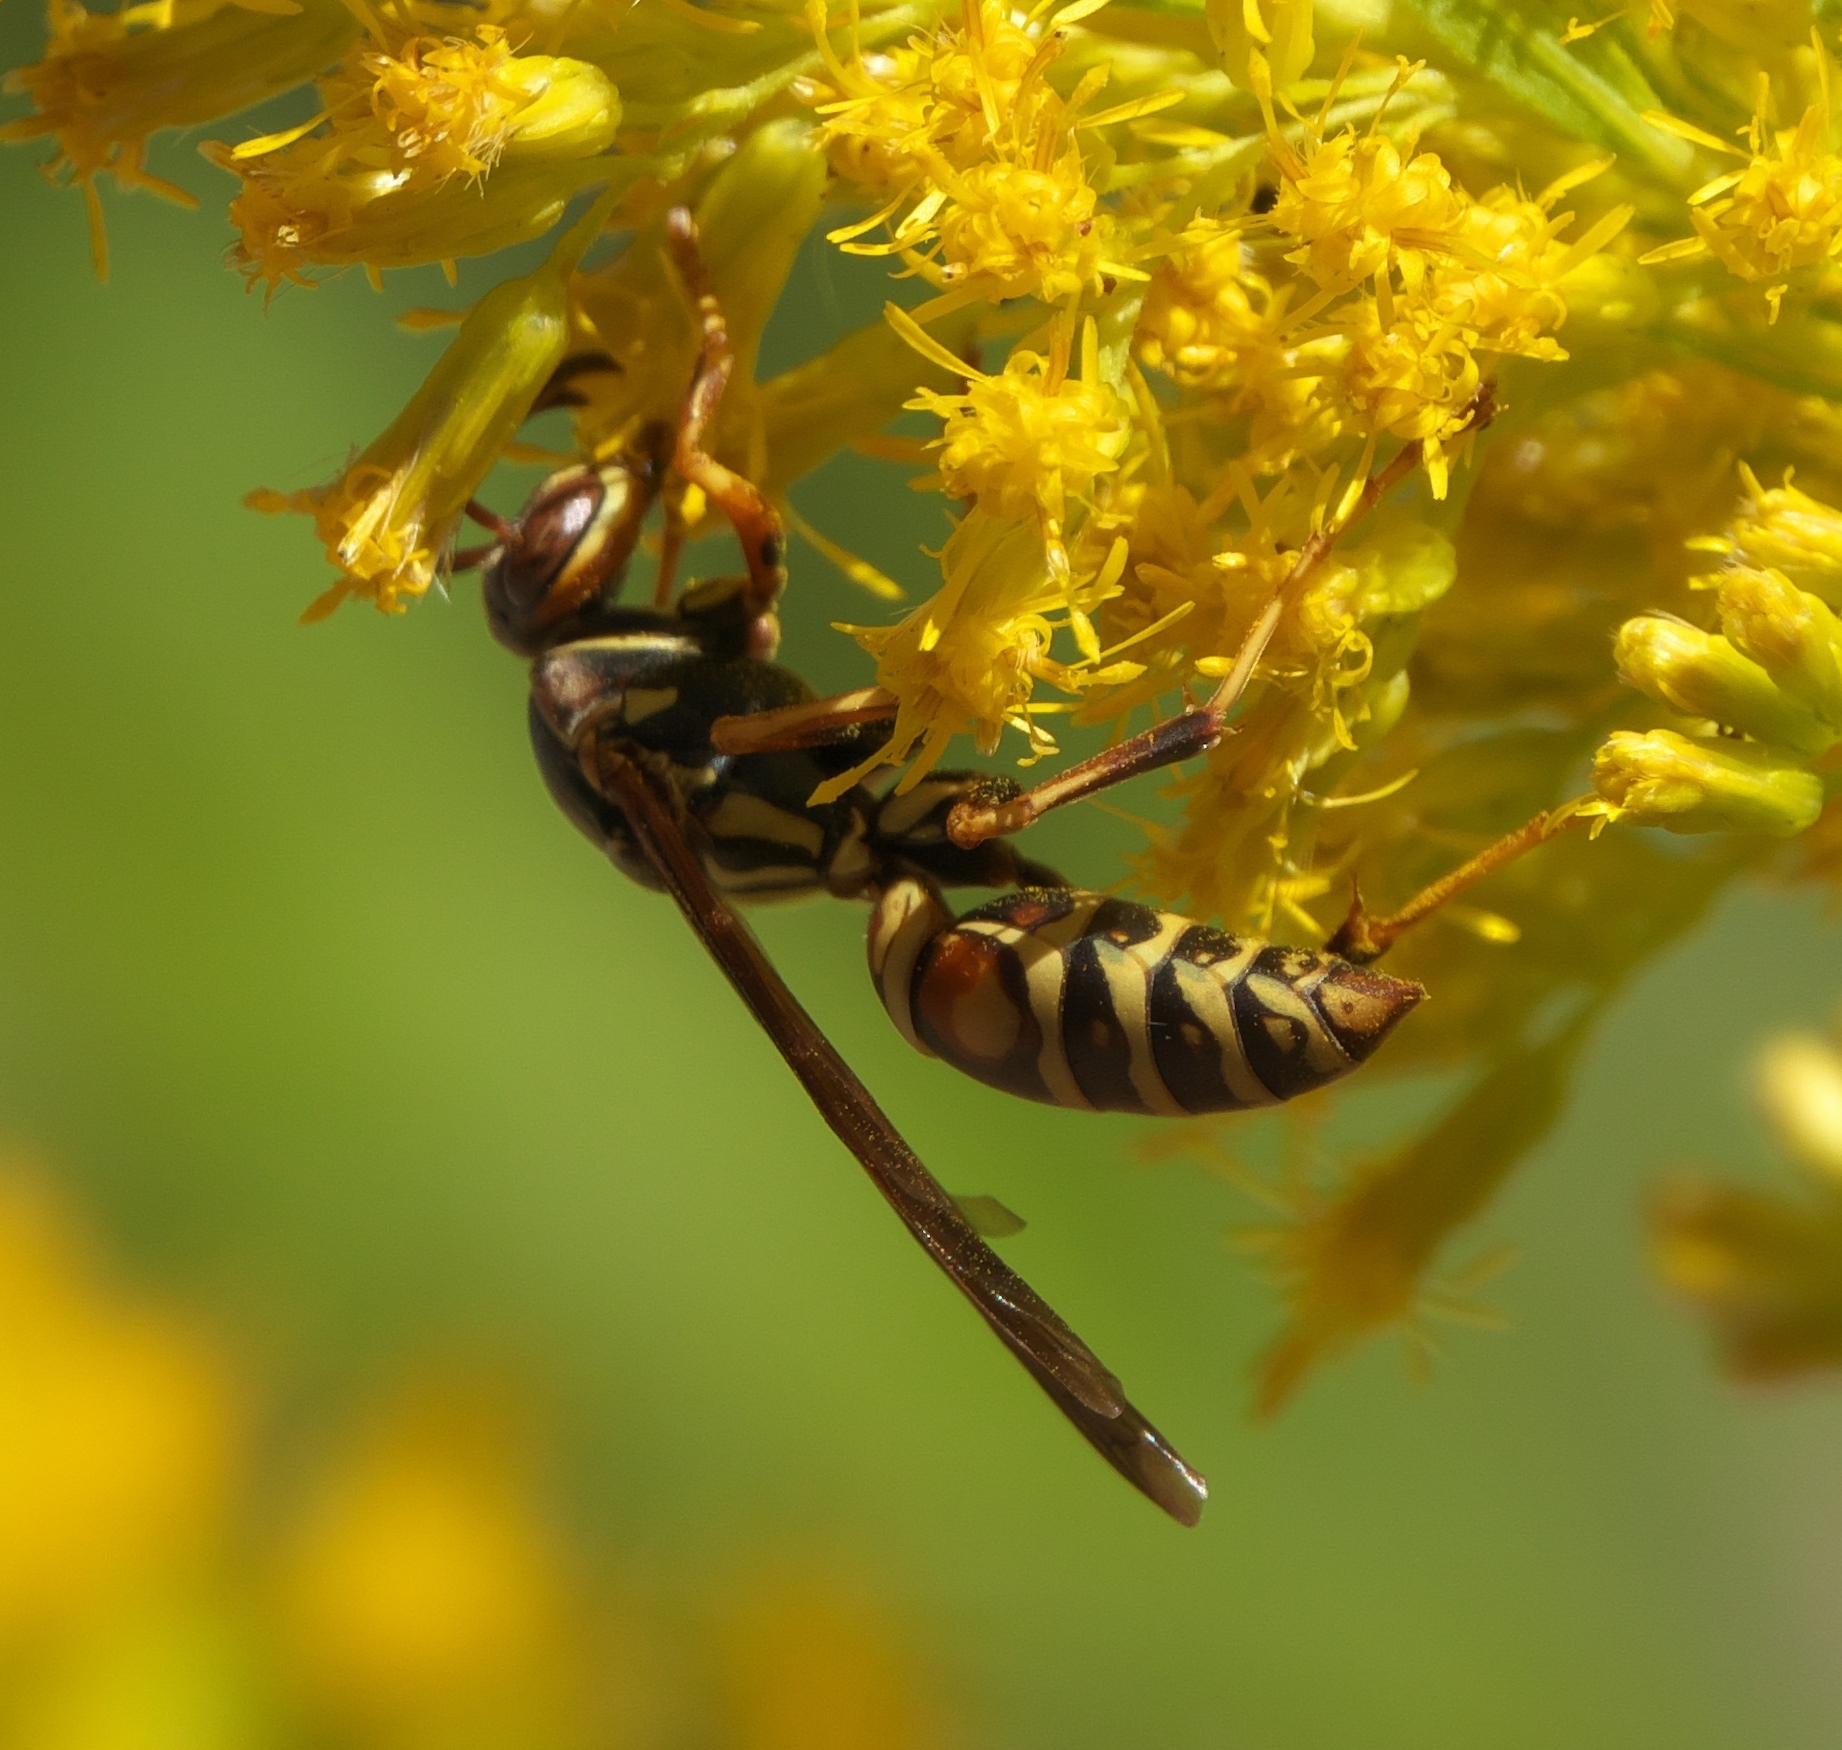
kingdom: Animalia
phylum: Arthropoda
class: Insecta
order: Hymenoptera
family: Eumenidae
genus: Polistes
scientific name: Polistes fuscatus
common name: Dark paper wasp
